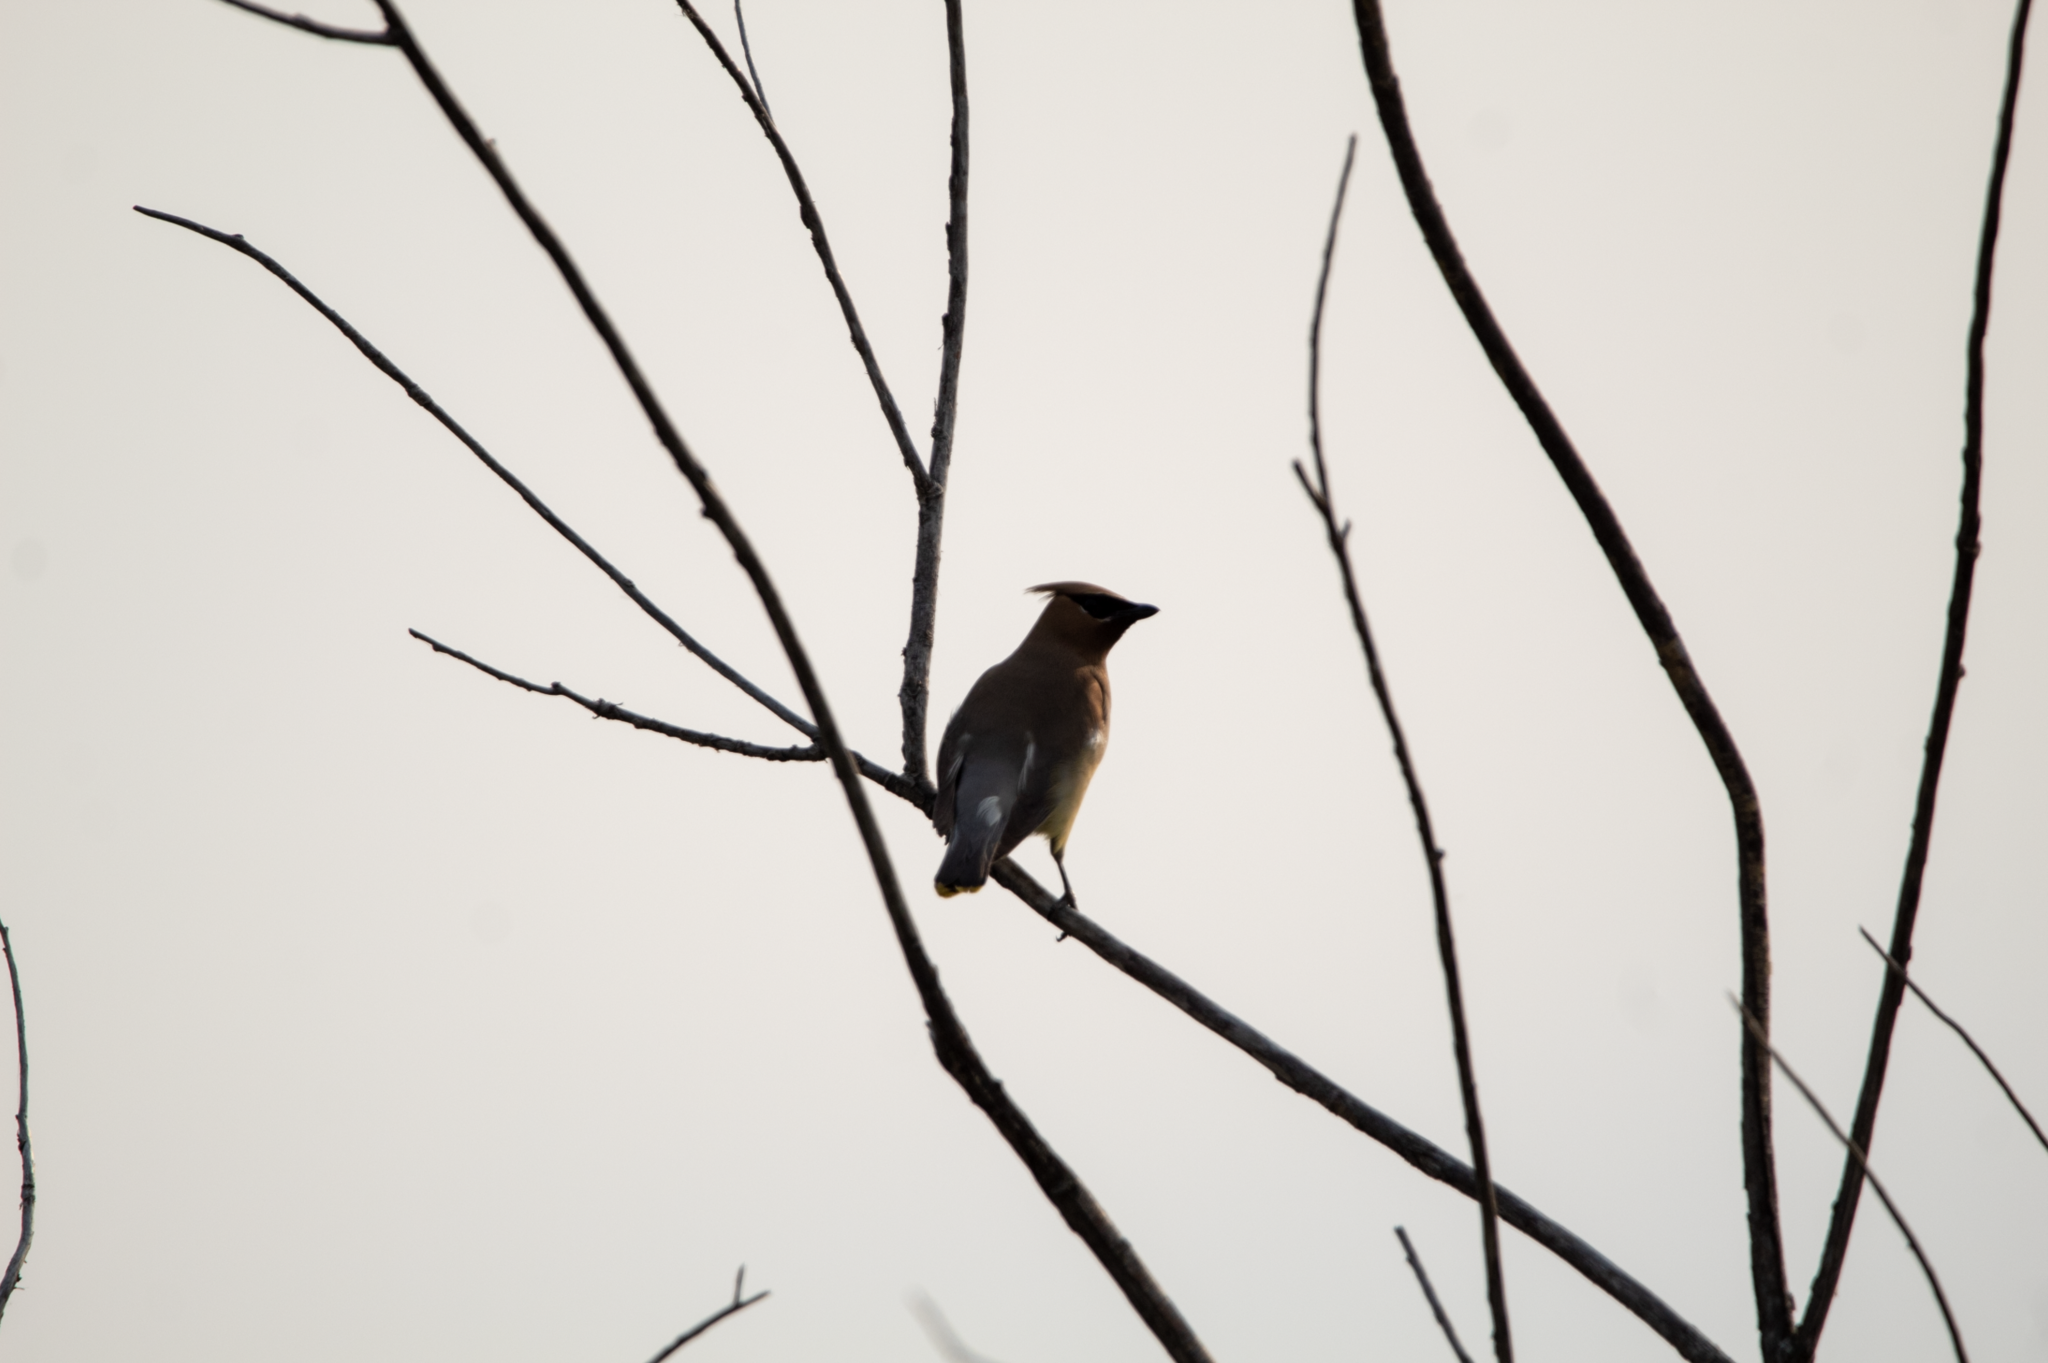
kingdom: Animalia
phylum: Chordata
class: Aves
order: Passeriformes
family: Bombycillidae
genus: Bombycilla
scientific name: Bombycilla cedrorum
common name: Cedar waxwing
